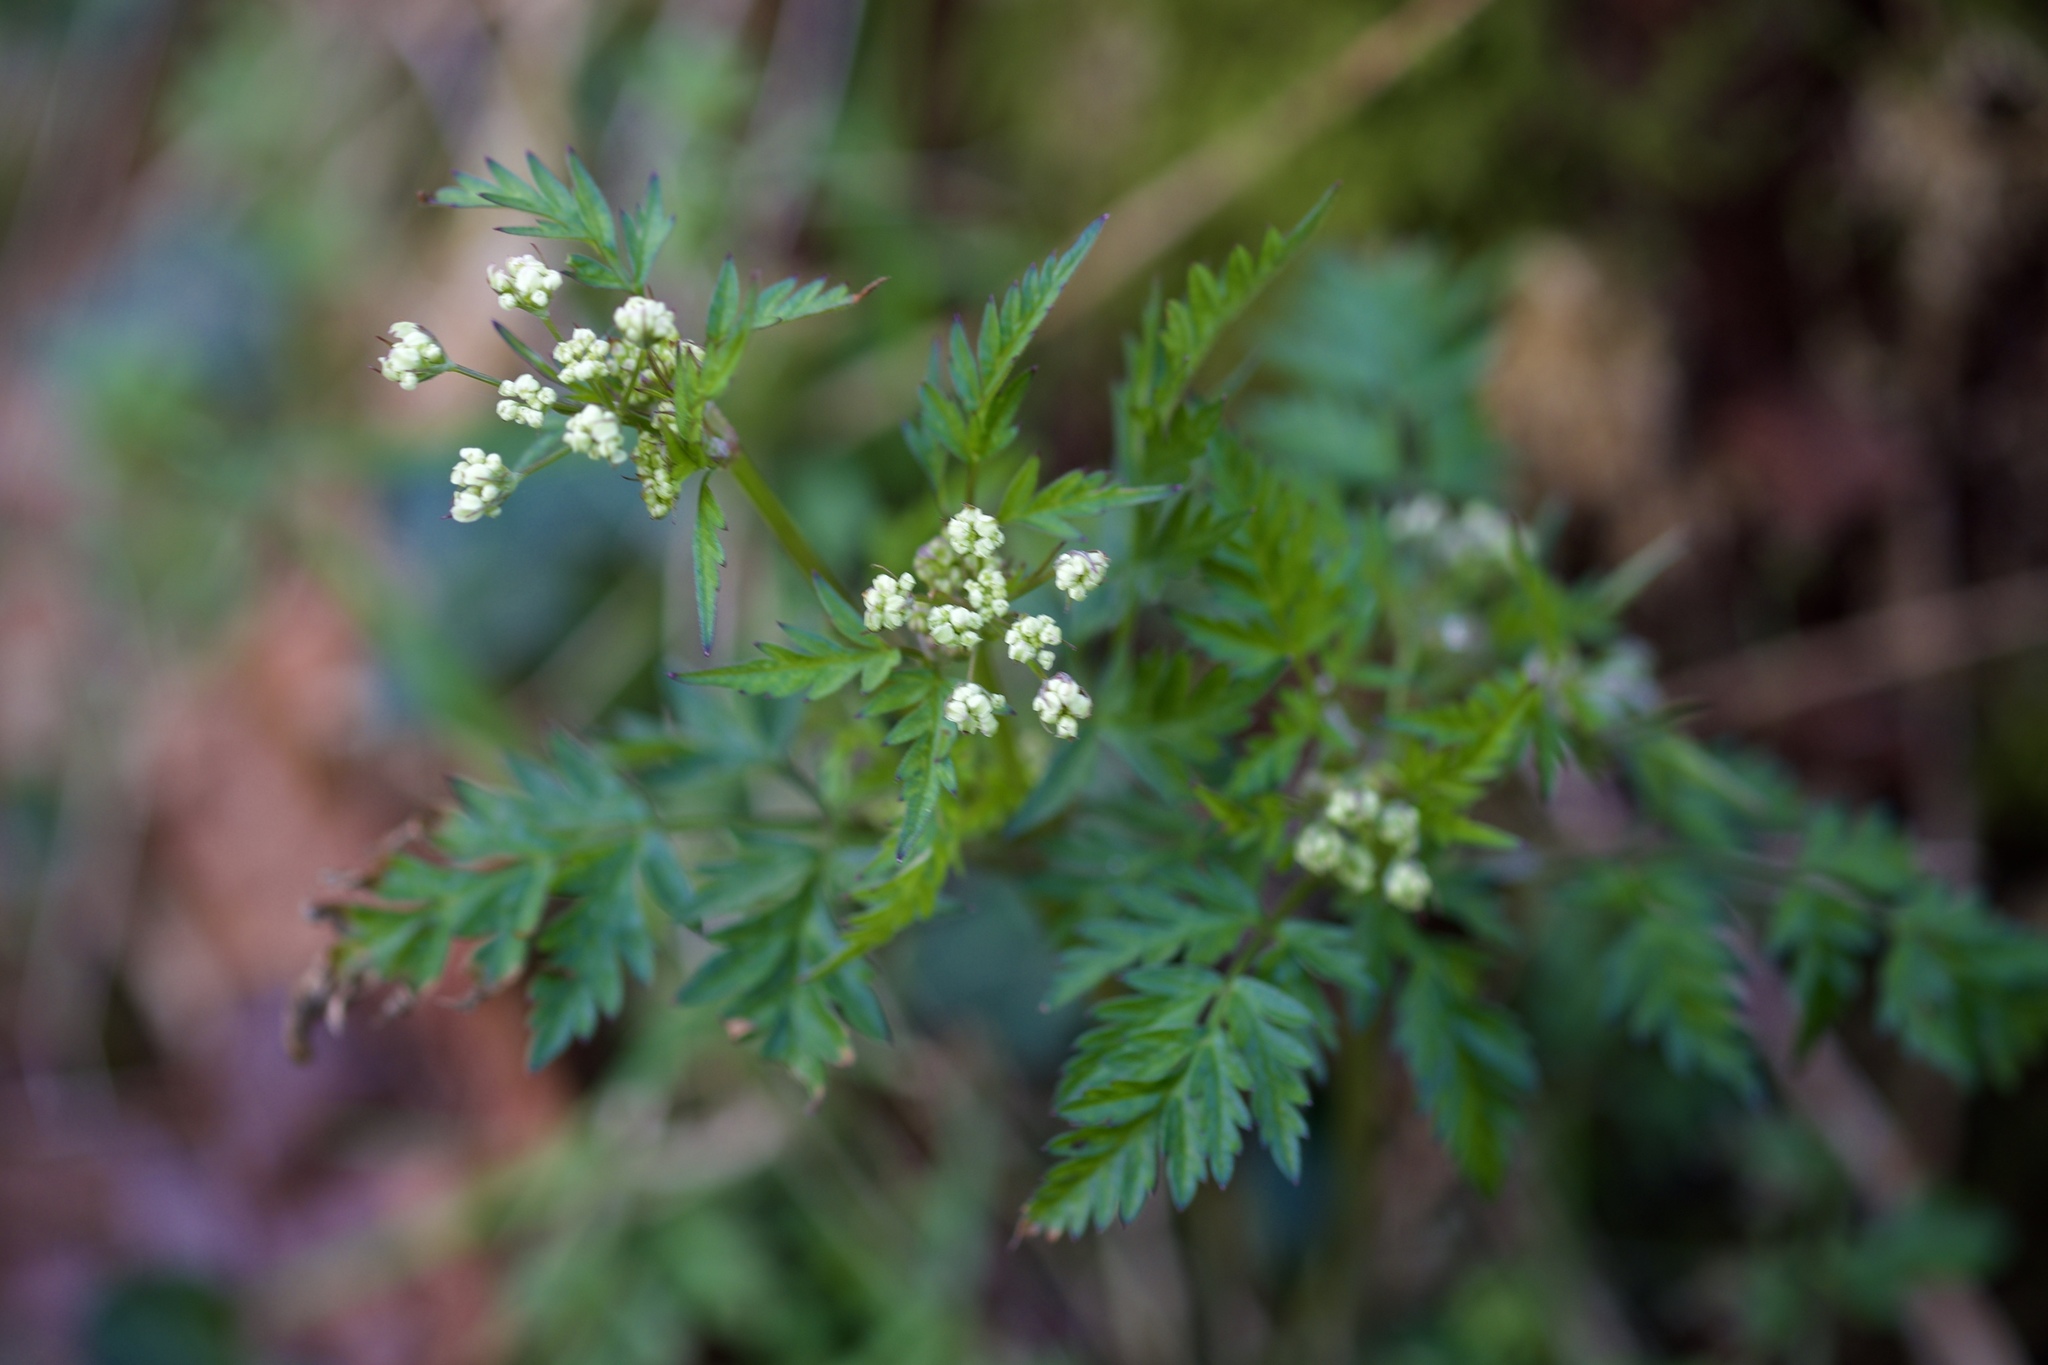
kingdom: Plantae
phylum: Tracheophyta
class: Magnoliopsida
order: Apiales
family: Apiaceae
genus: Anthriscus
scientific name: Anthriscus sylvestris
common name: Cow parsley
